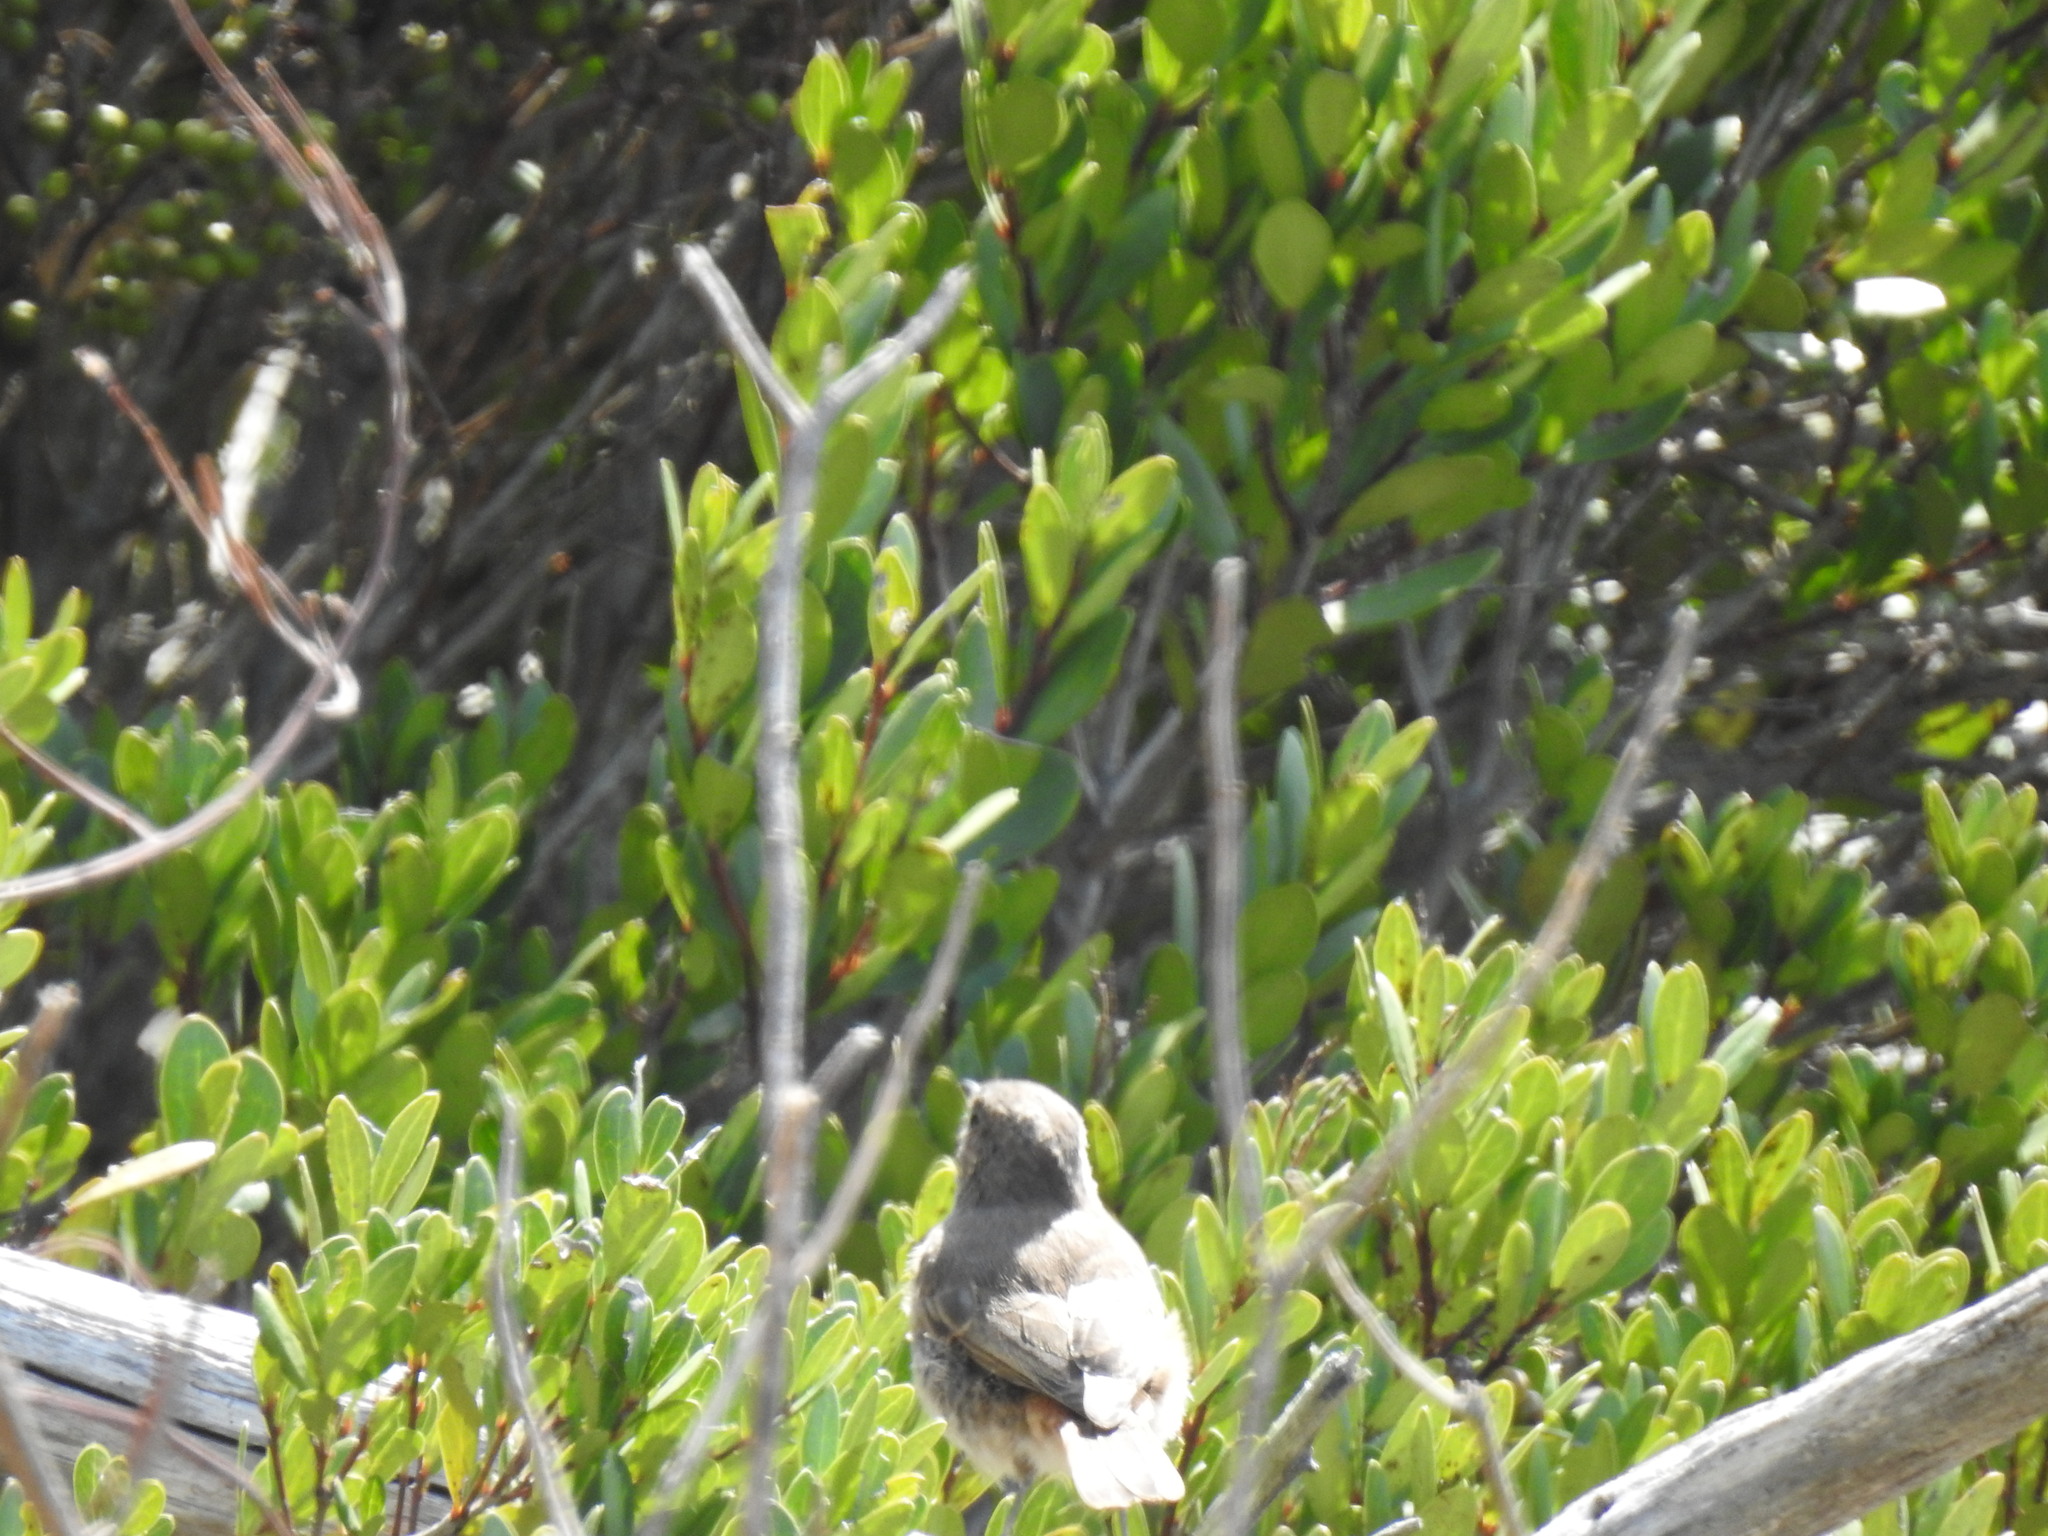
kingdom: Animalia
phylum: Chordata
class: Aves
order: Passeriformes
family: Muscicapidae
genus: Oenanthe
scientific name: Oenanthe familiaris
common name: Familiar chat
